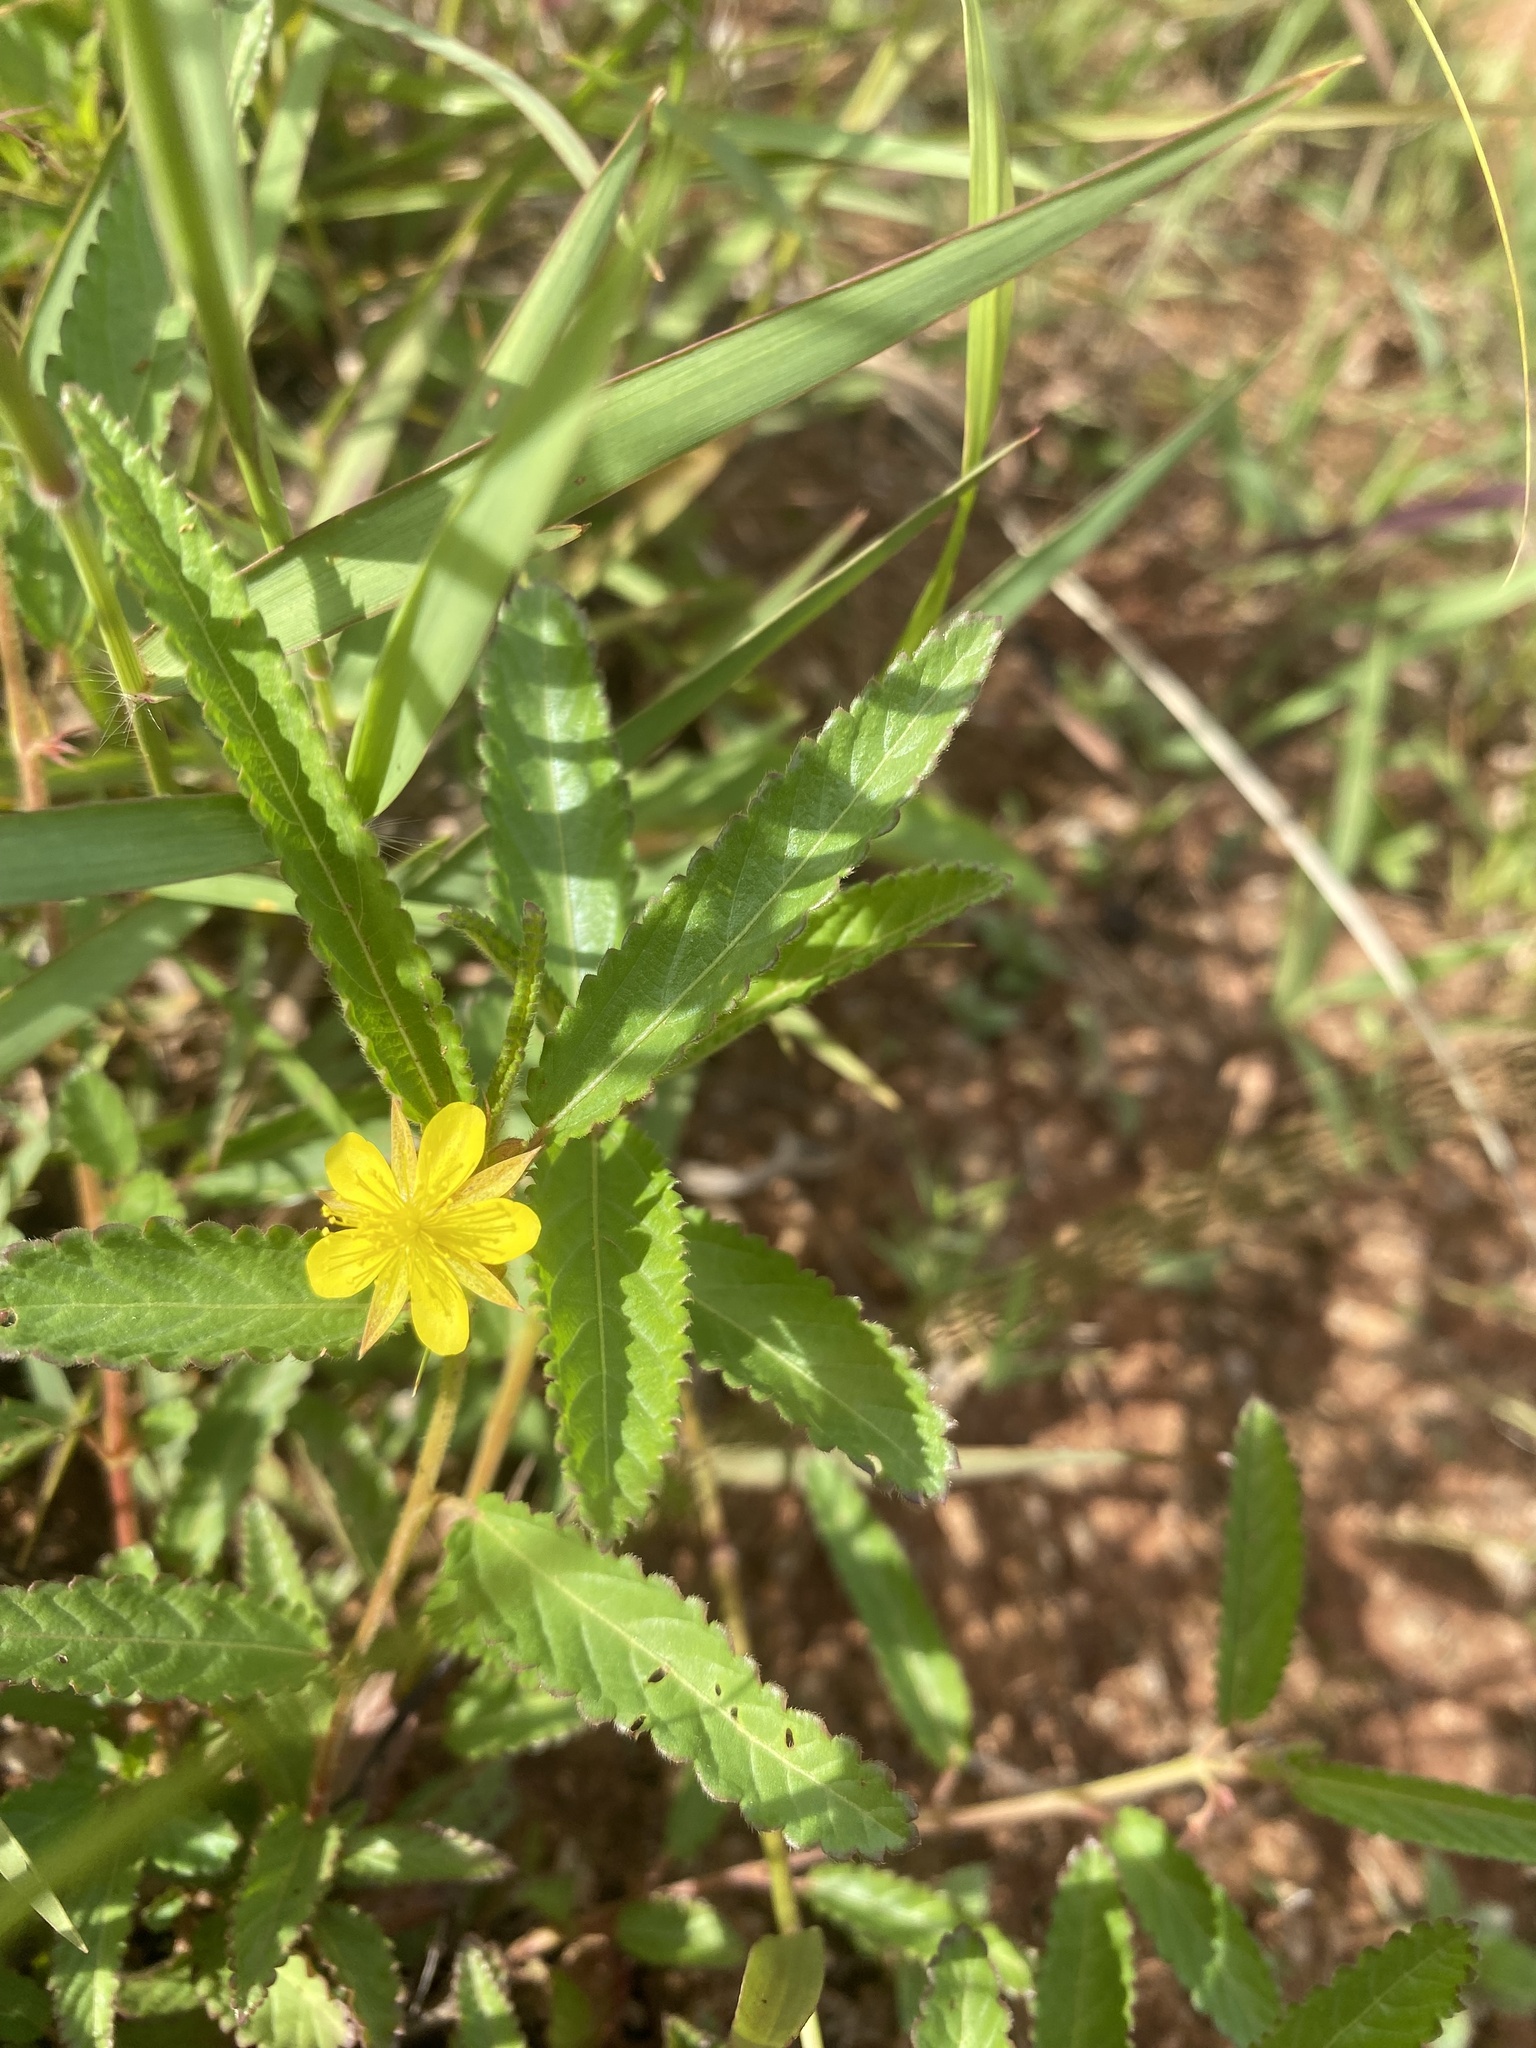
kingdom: Plantae
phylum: Tracheophyta
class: Magnoliopsida
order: Malvales
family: Malvaceae
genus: Corchorus
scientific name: Corchorus confusus
